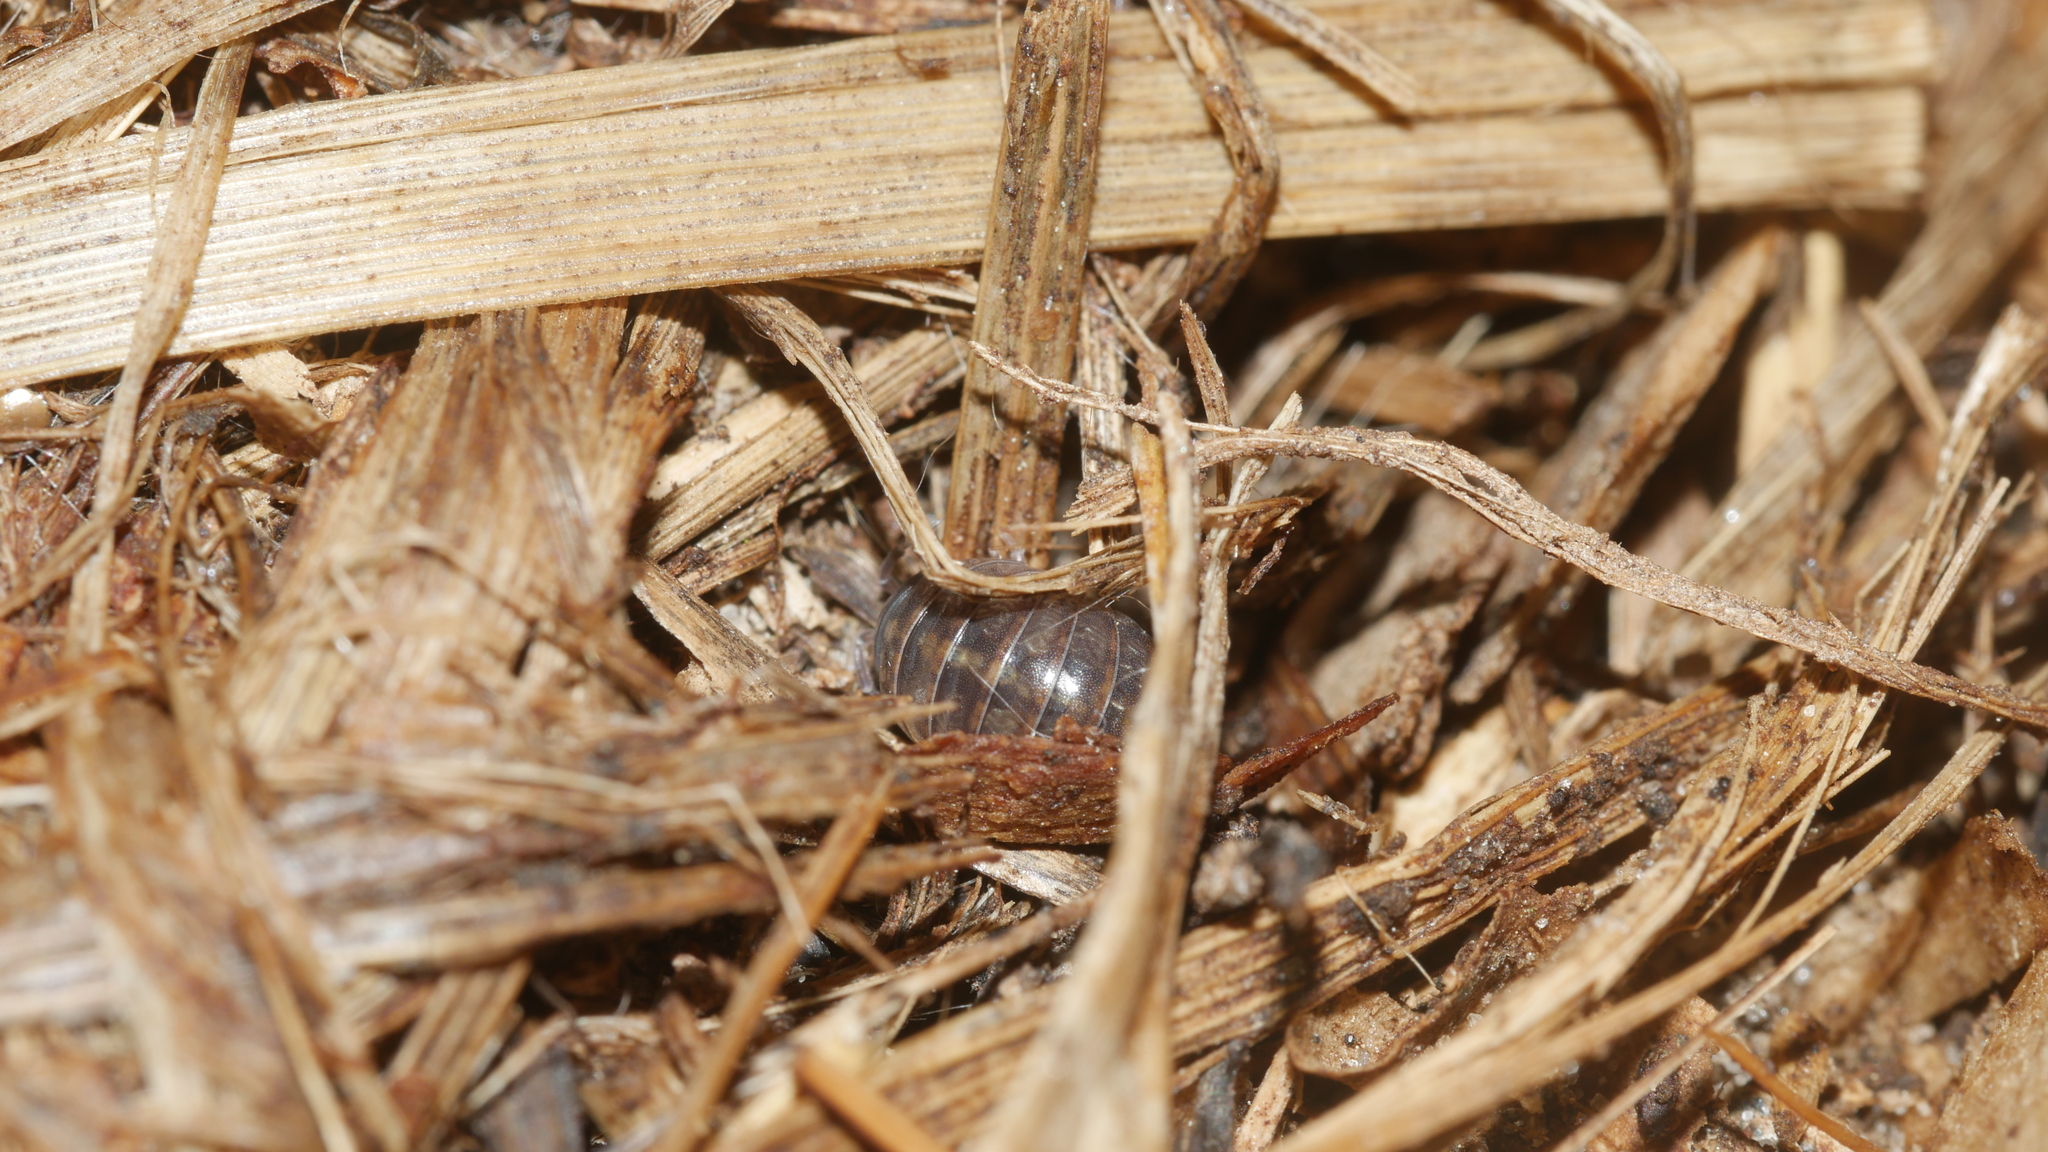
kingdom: Animalia
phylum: Arthropoda
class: Malacostraca
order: Isopoda
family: Armadillidiidae
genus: Armadillidium
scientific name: Armadillidium vulgare
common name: Common pill woodlouse
